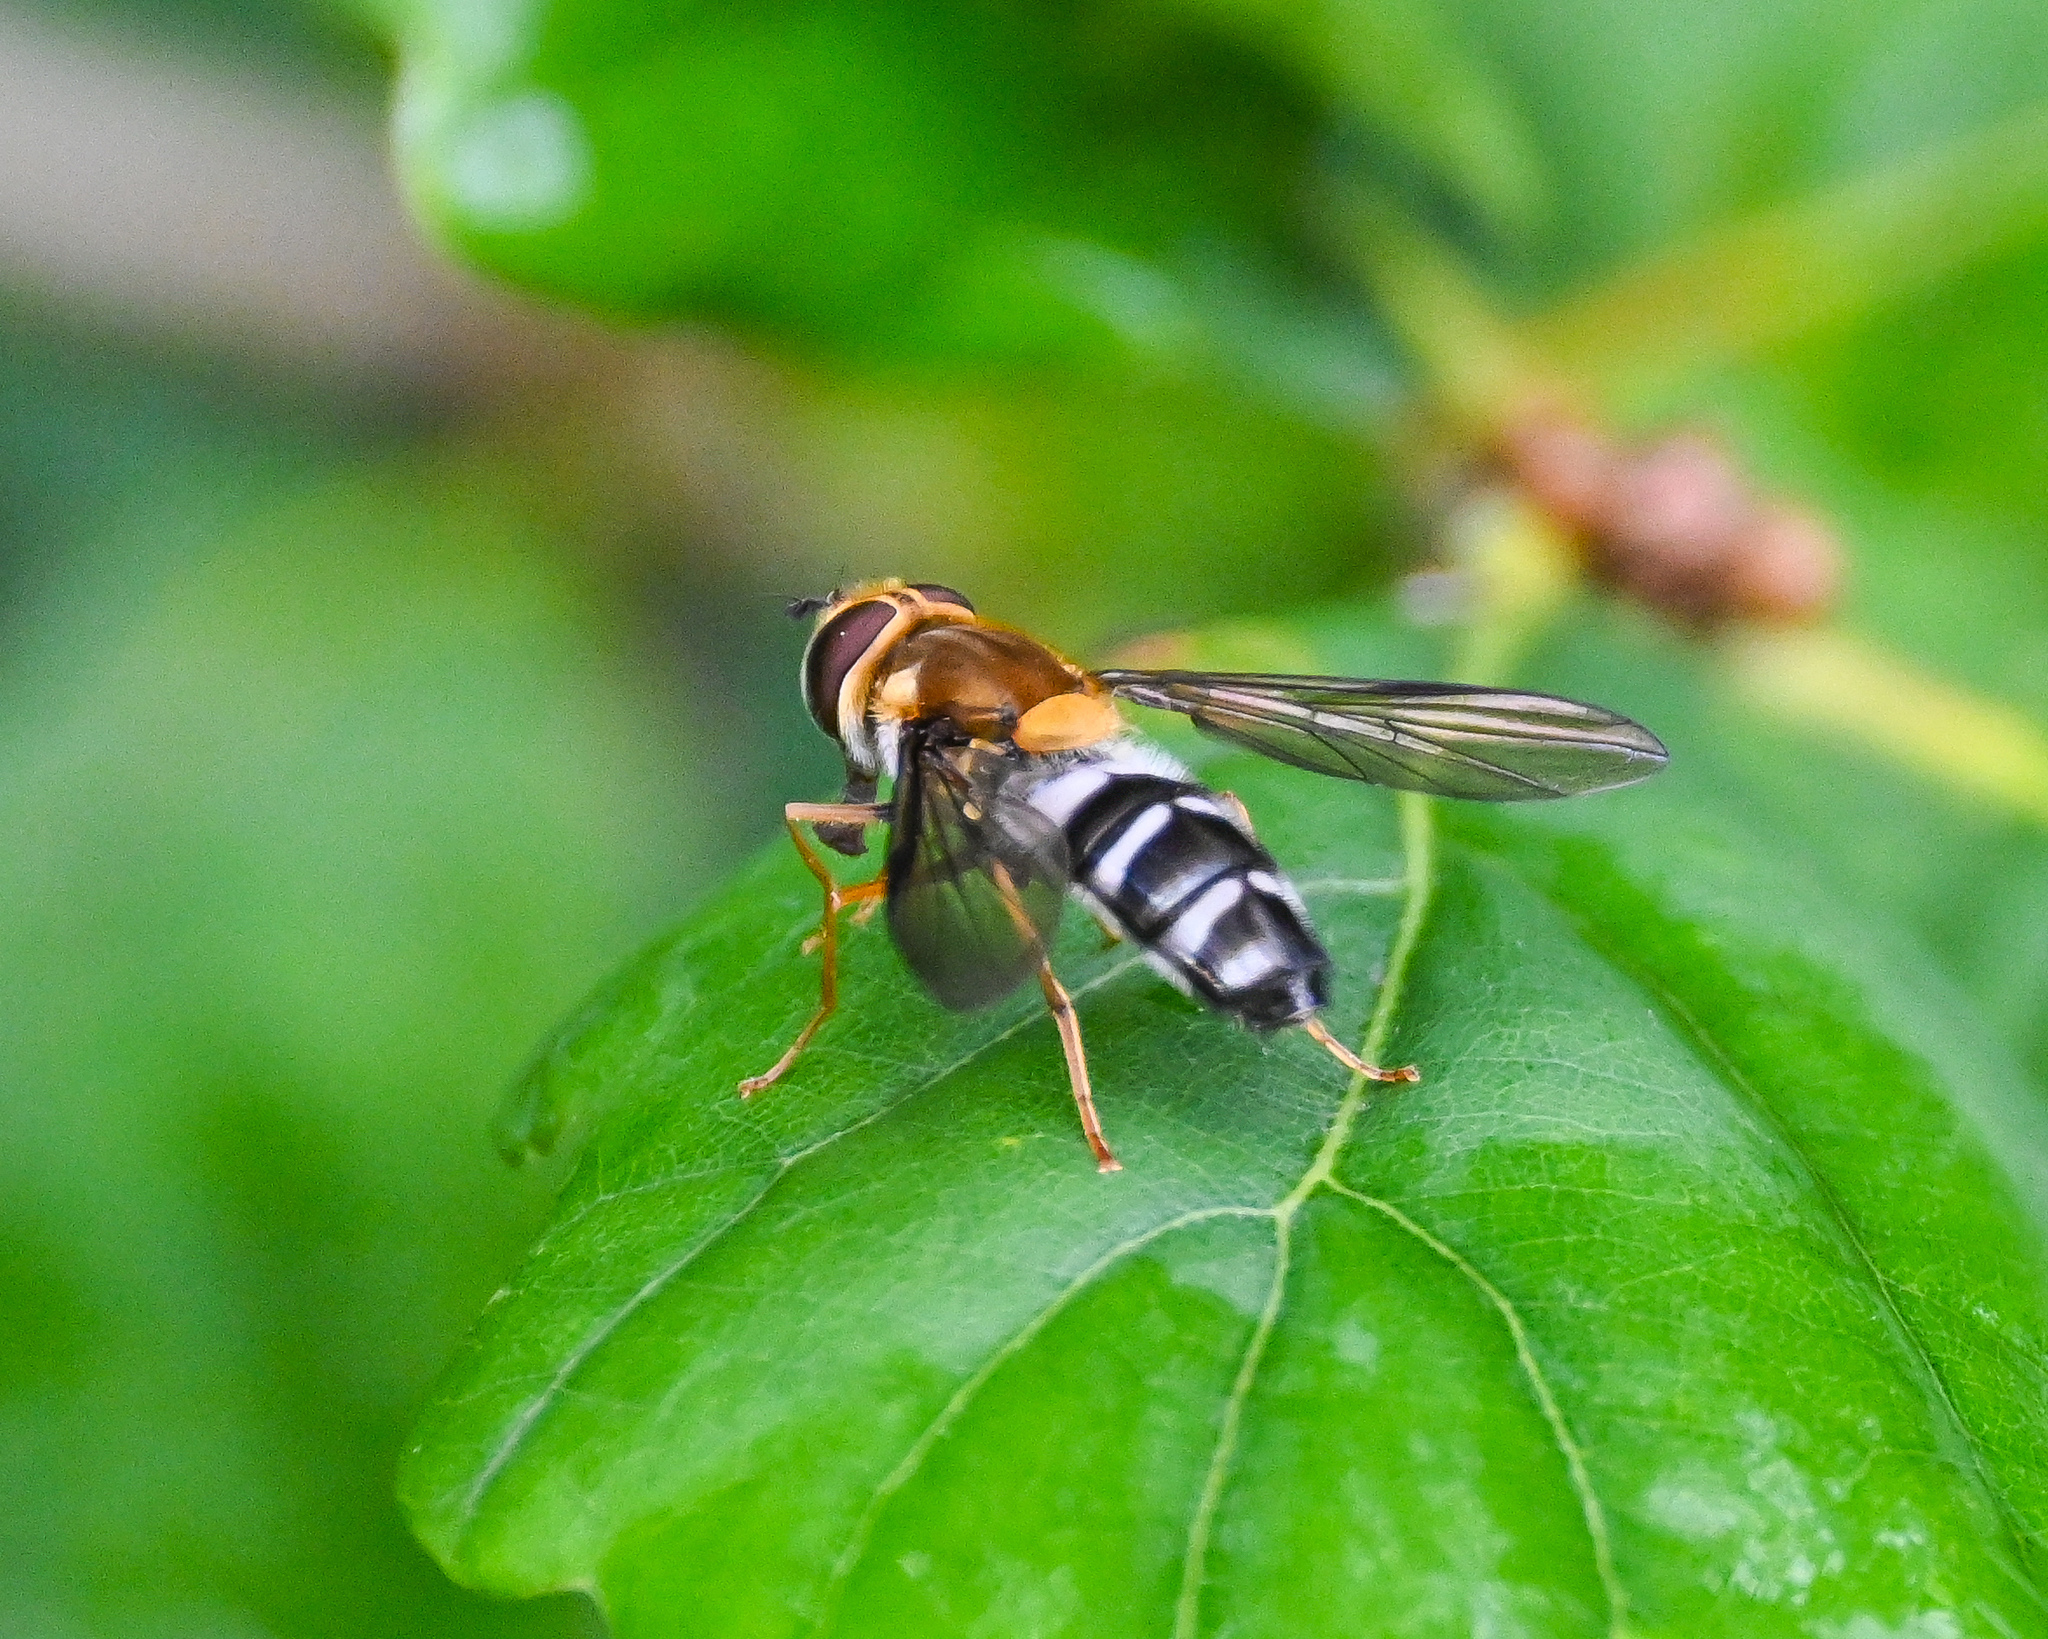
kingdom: Animalia
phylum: Arthropoda
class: Insecta
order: Diptera
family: Syrphidae
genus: Leucozona
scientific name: Leucozona glaucia
